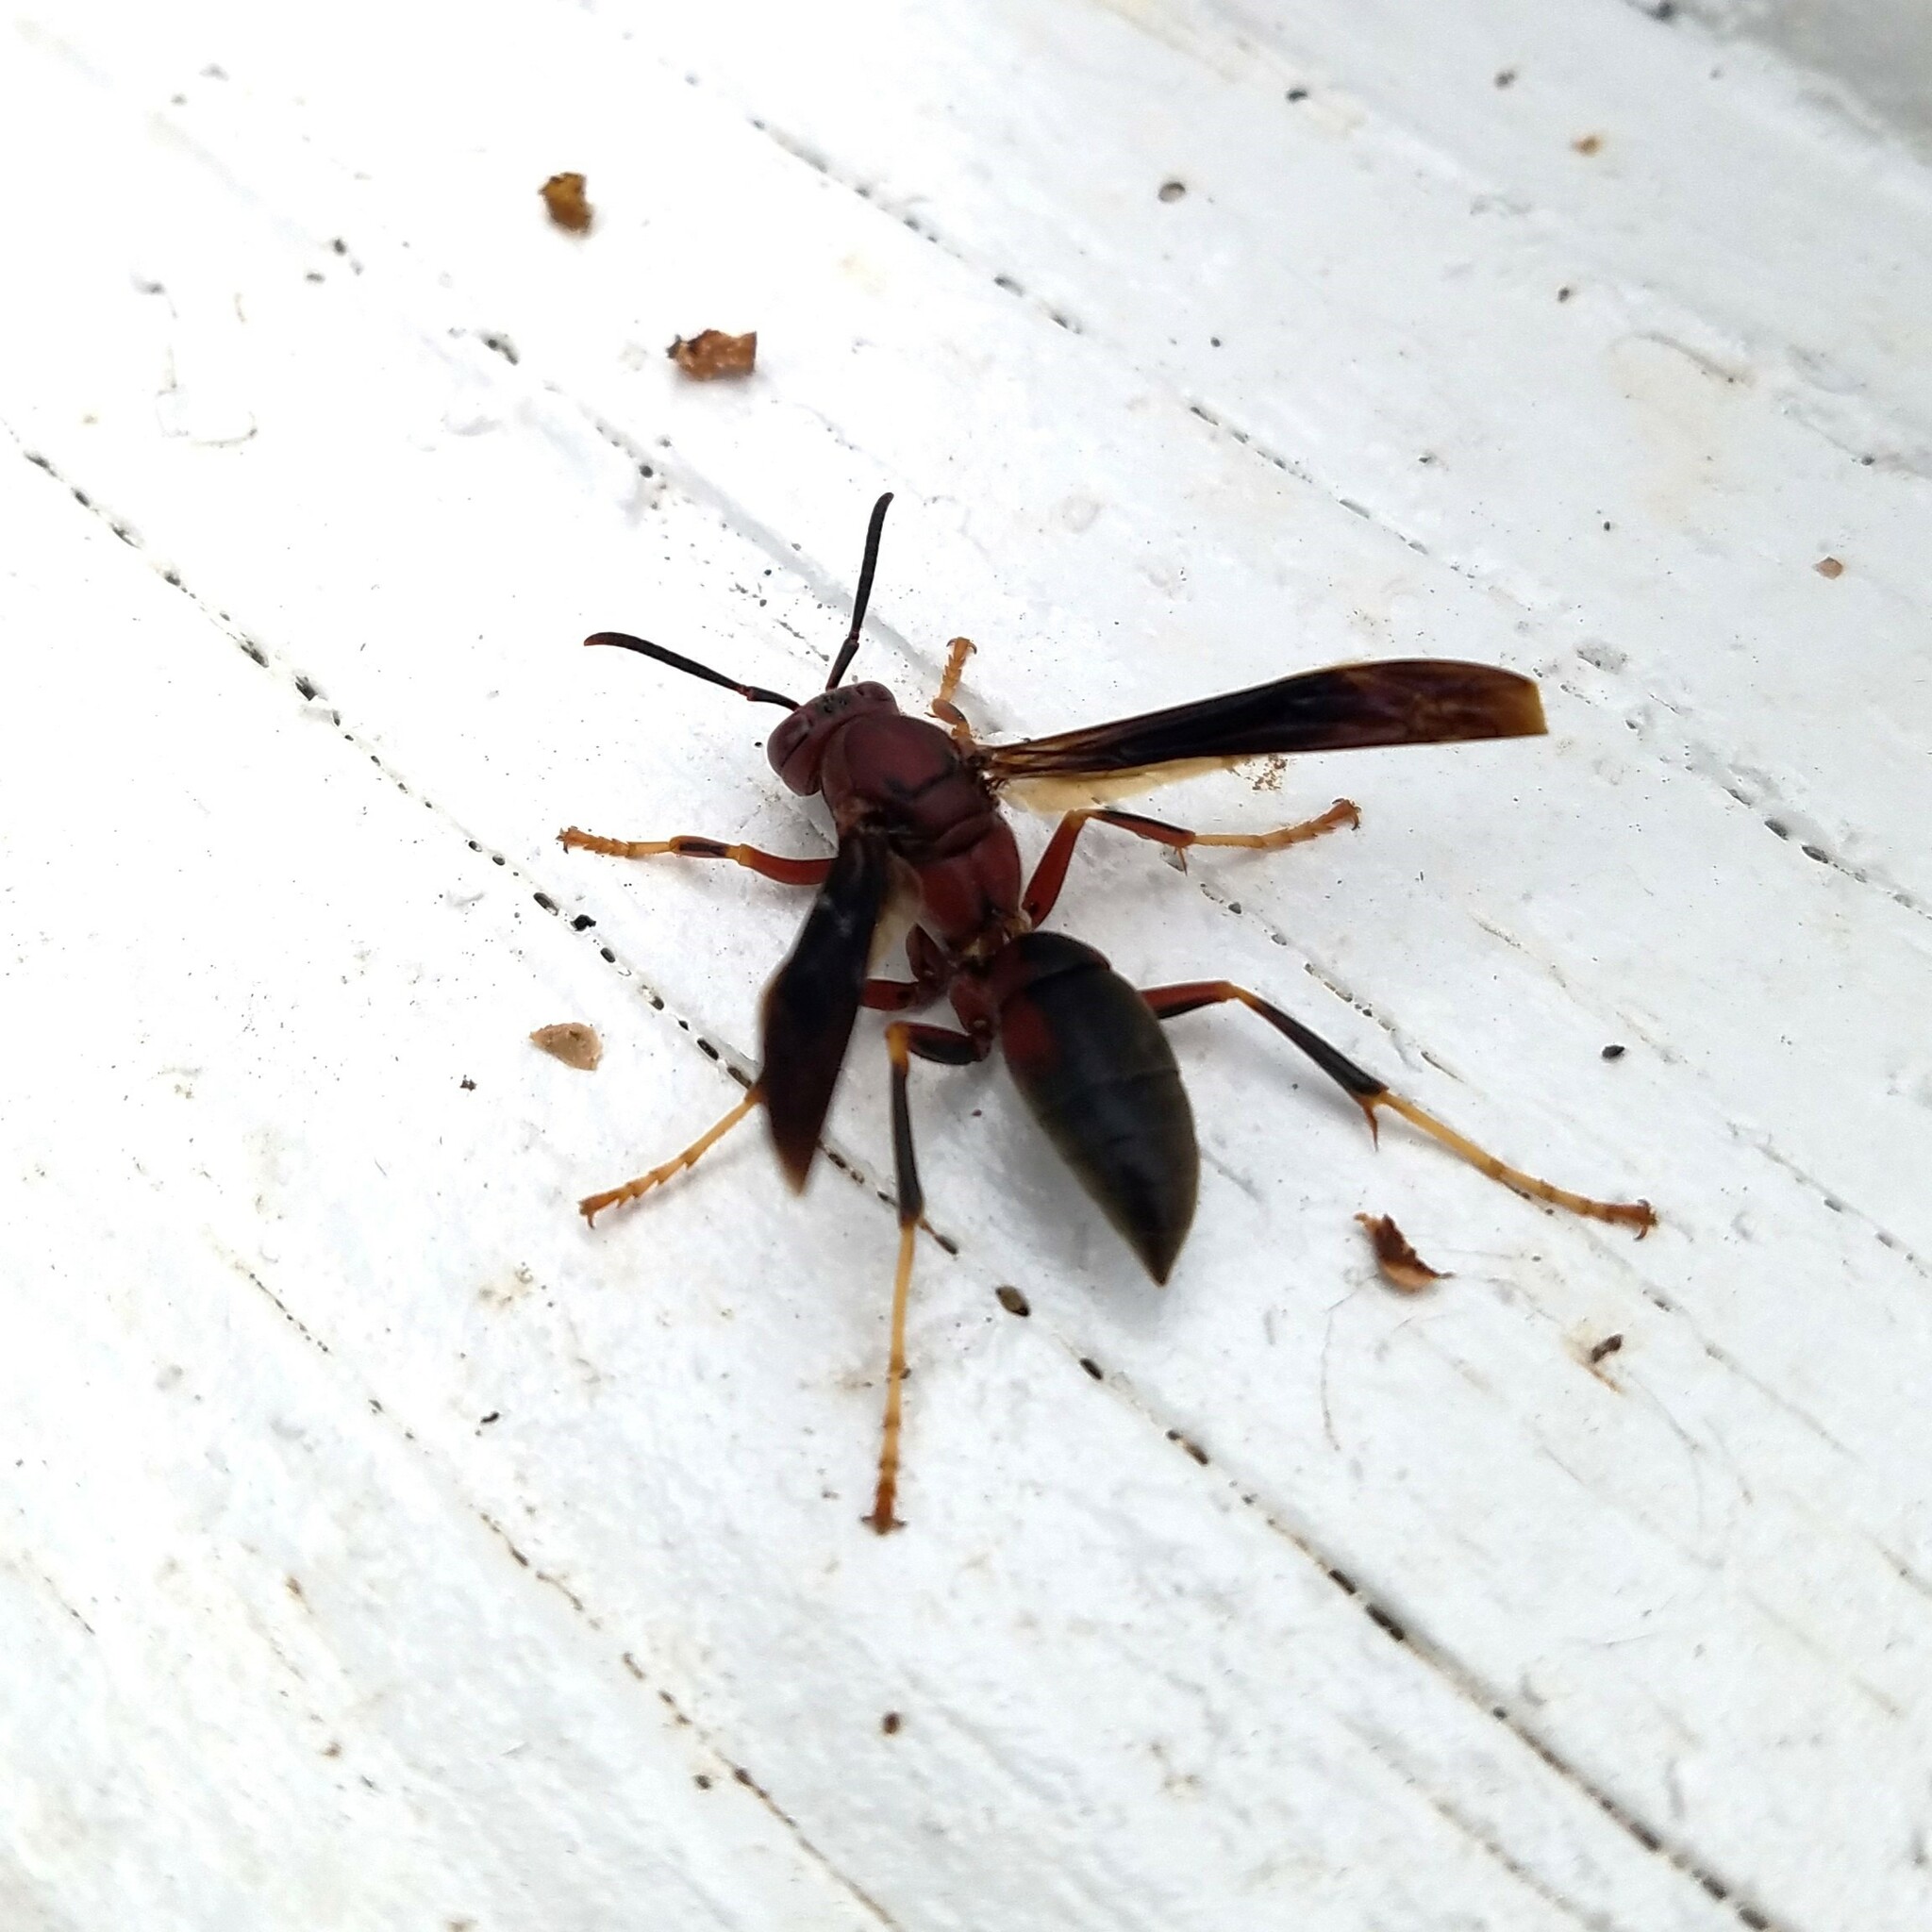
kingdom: Animalia
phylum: Arthropoda
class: Insecta
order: Hymenoptera
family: Eumenidae
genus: Polistes
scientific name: Polistes metricus
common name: Metric paper wasp
